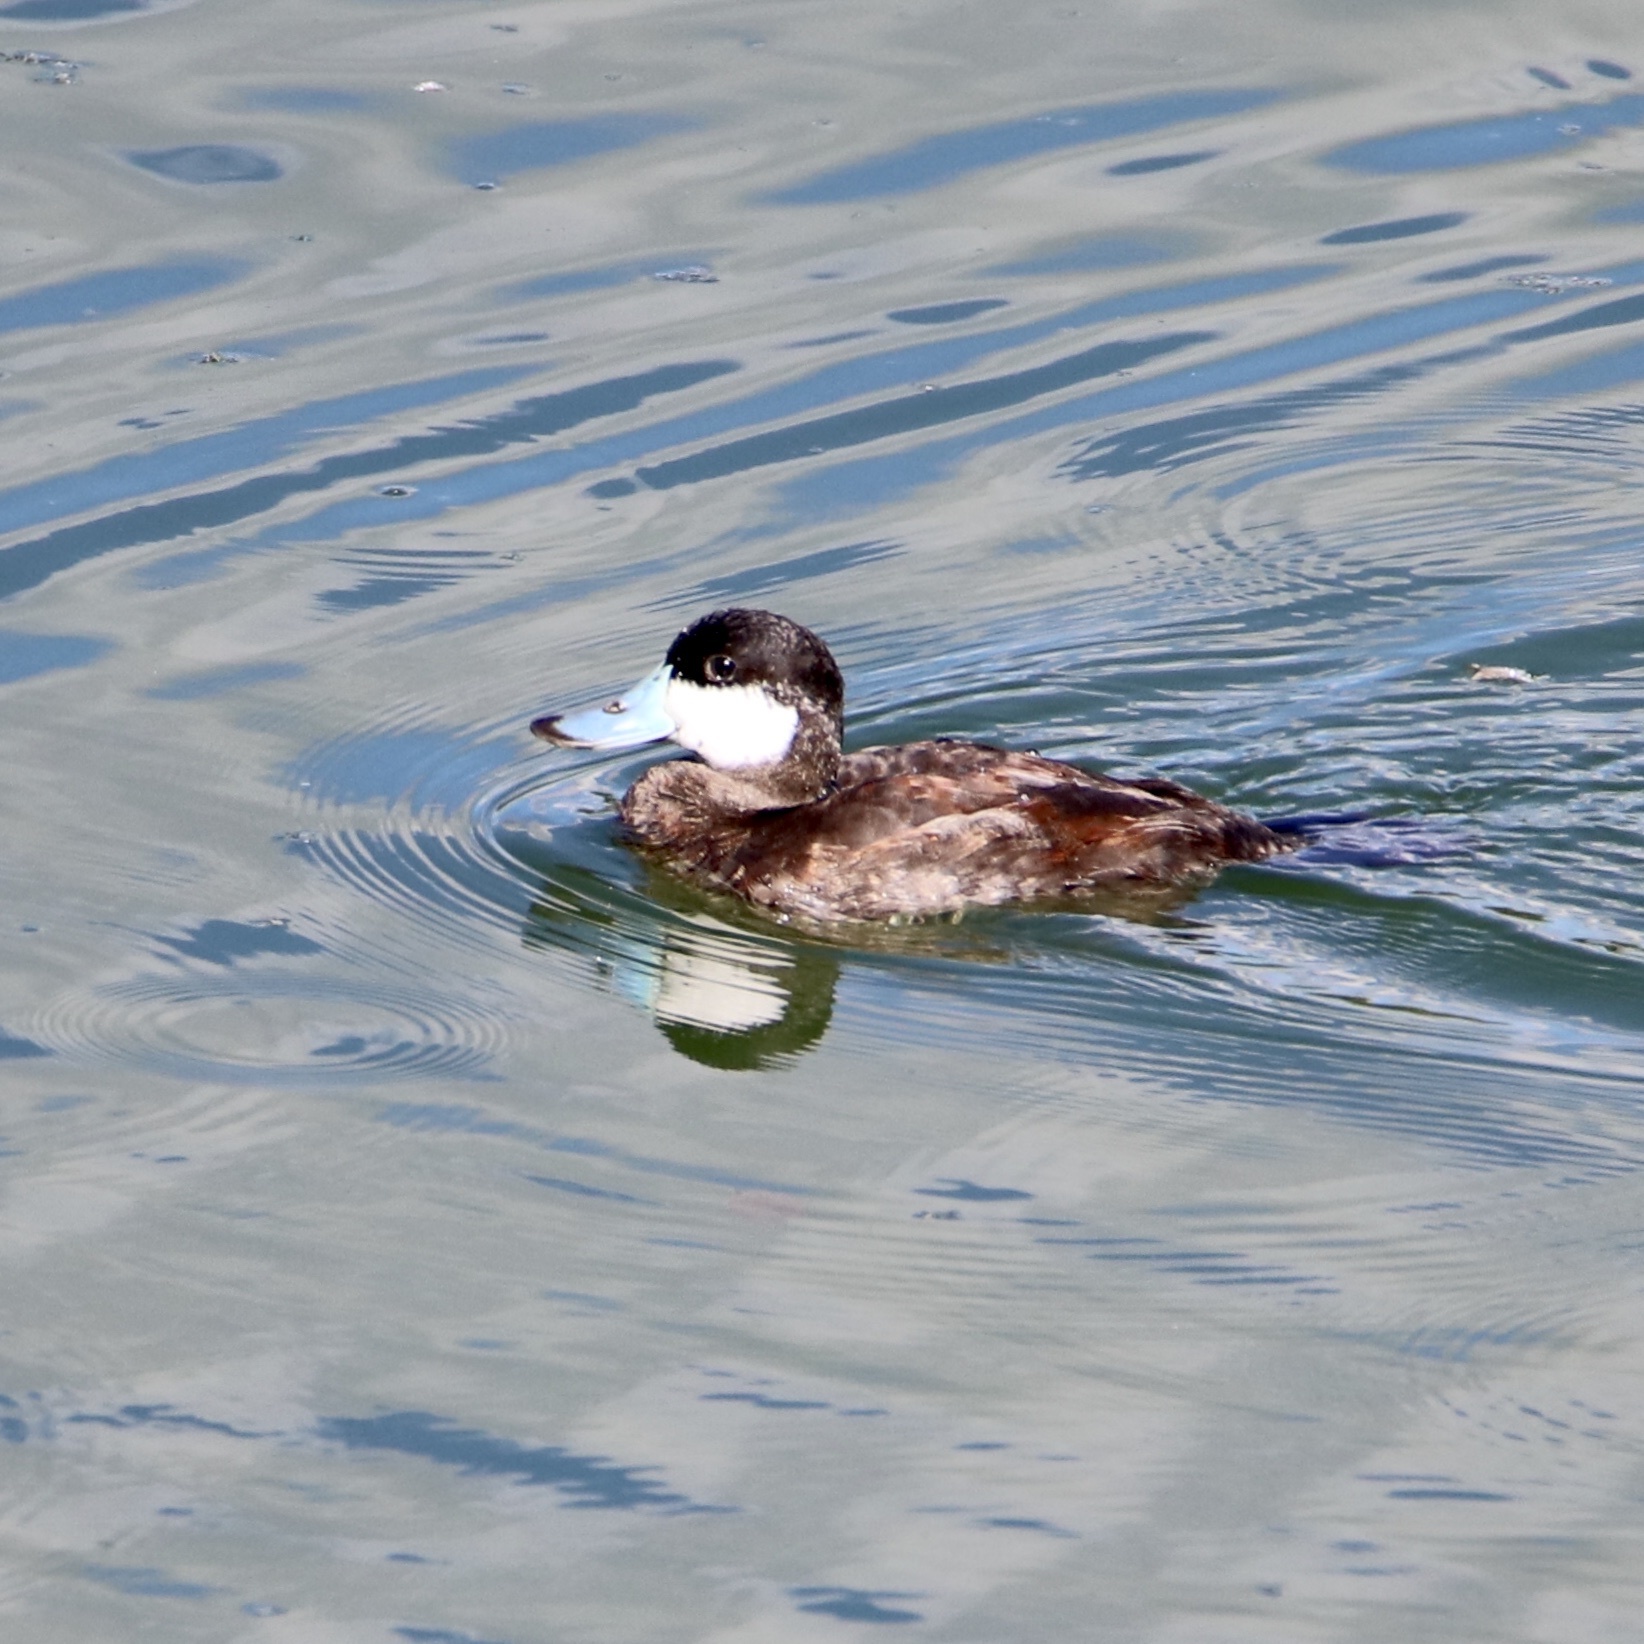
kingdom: Animalia
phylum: Chordata
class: Aves
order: Anseriformes
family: Anatidae
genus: Oxyura
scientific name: Oxyura jamaicensis
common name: Ruddy duck
